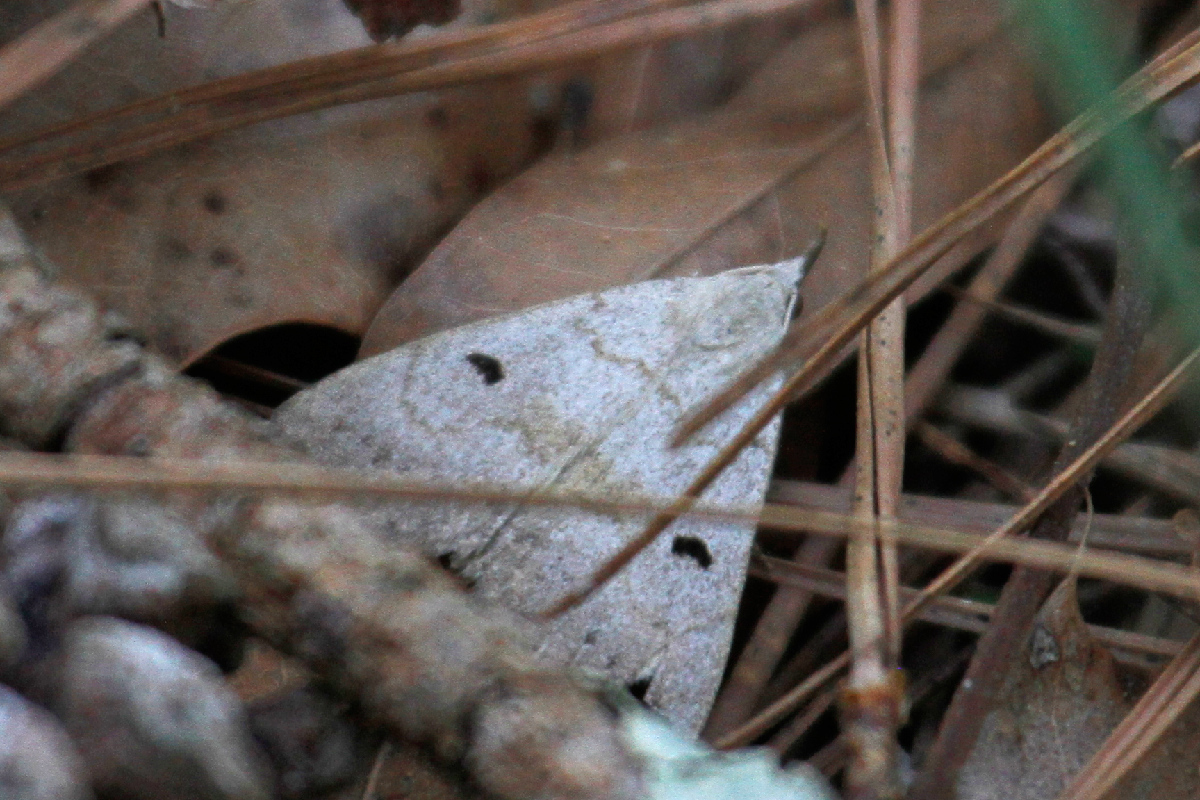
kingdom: Animalia
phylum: Arthropoda
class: Insecta
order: Lepidoptera
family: Erebidae
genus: Macrochilo
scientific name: Macrochilo morbidalis
